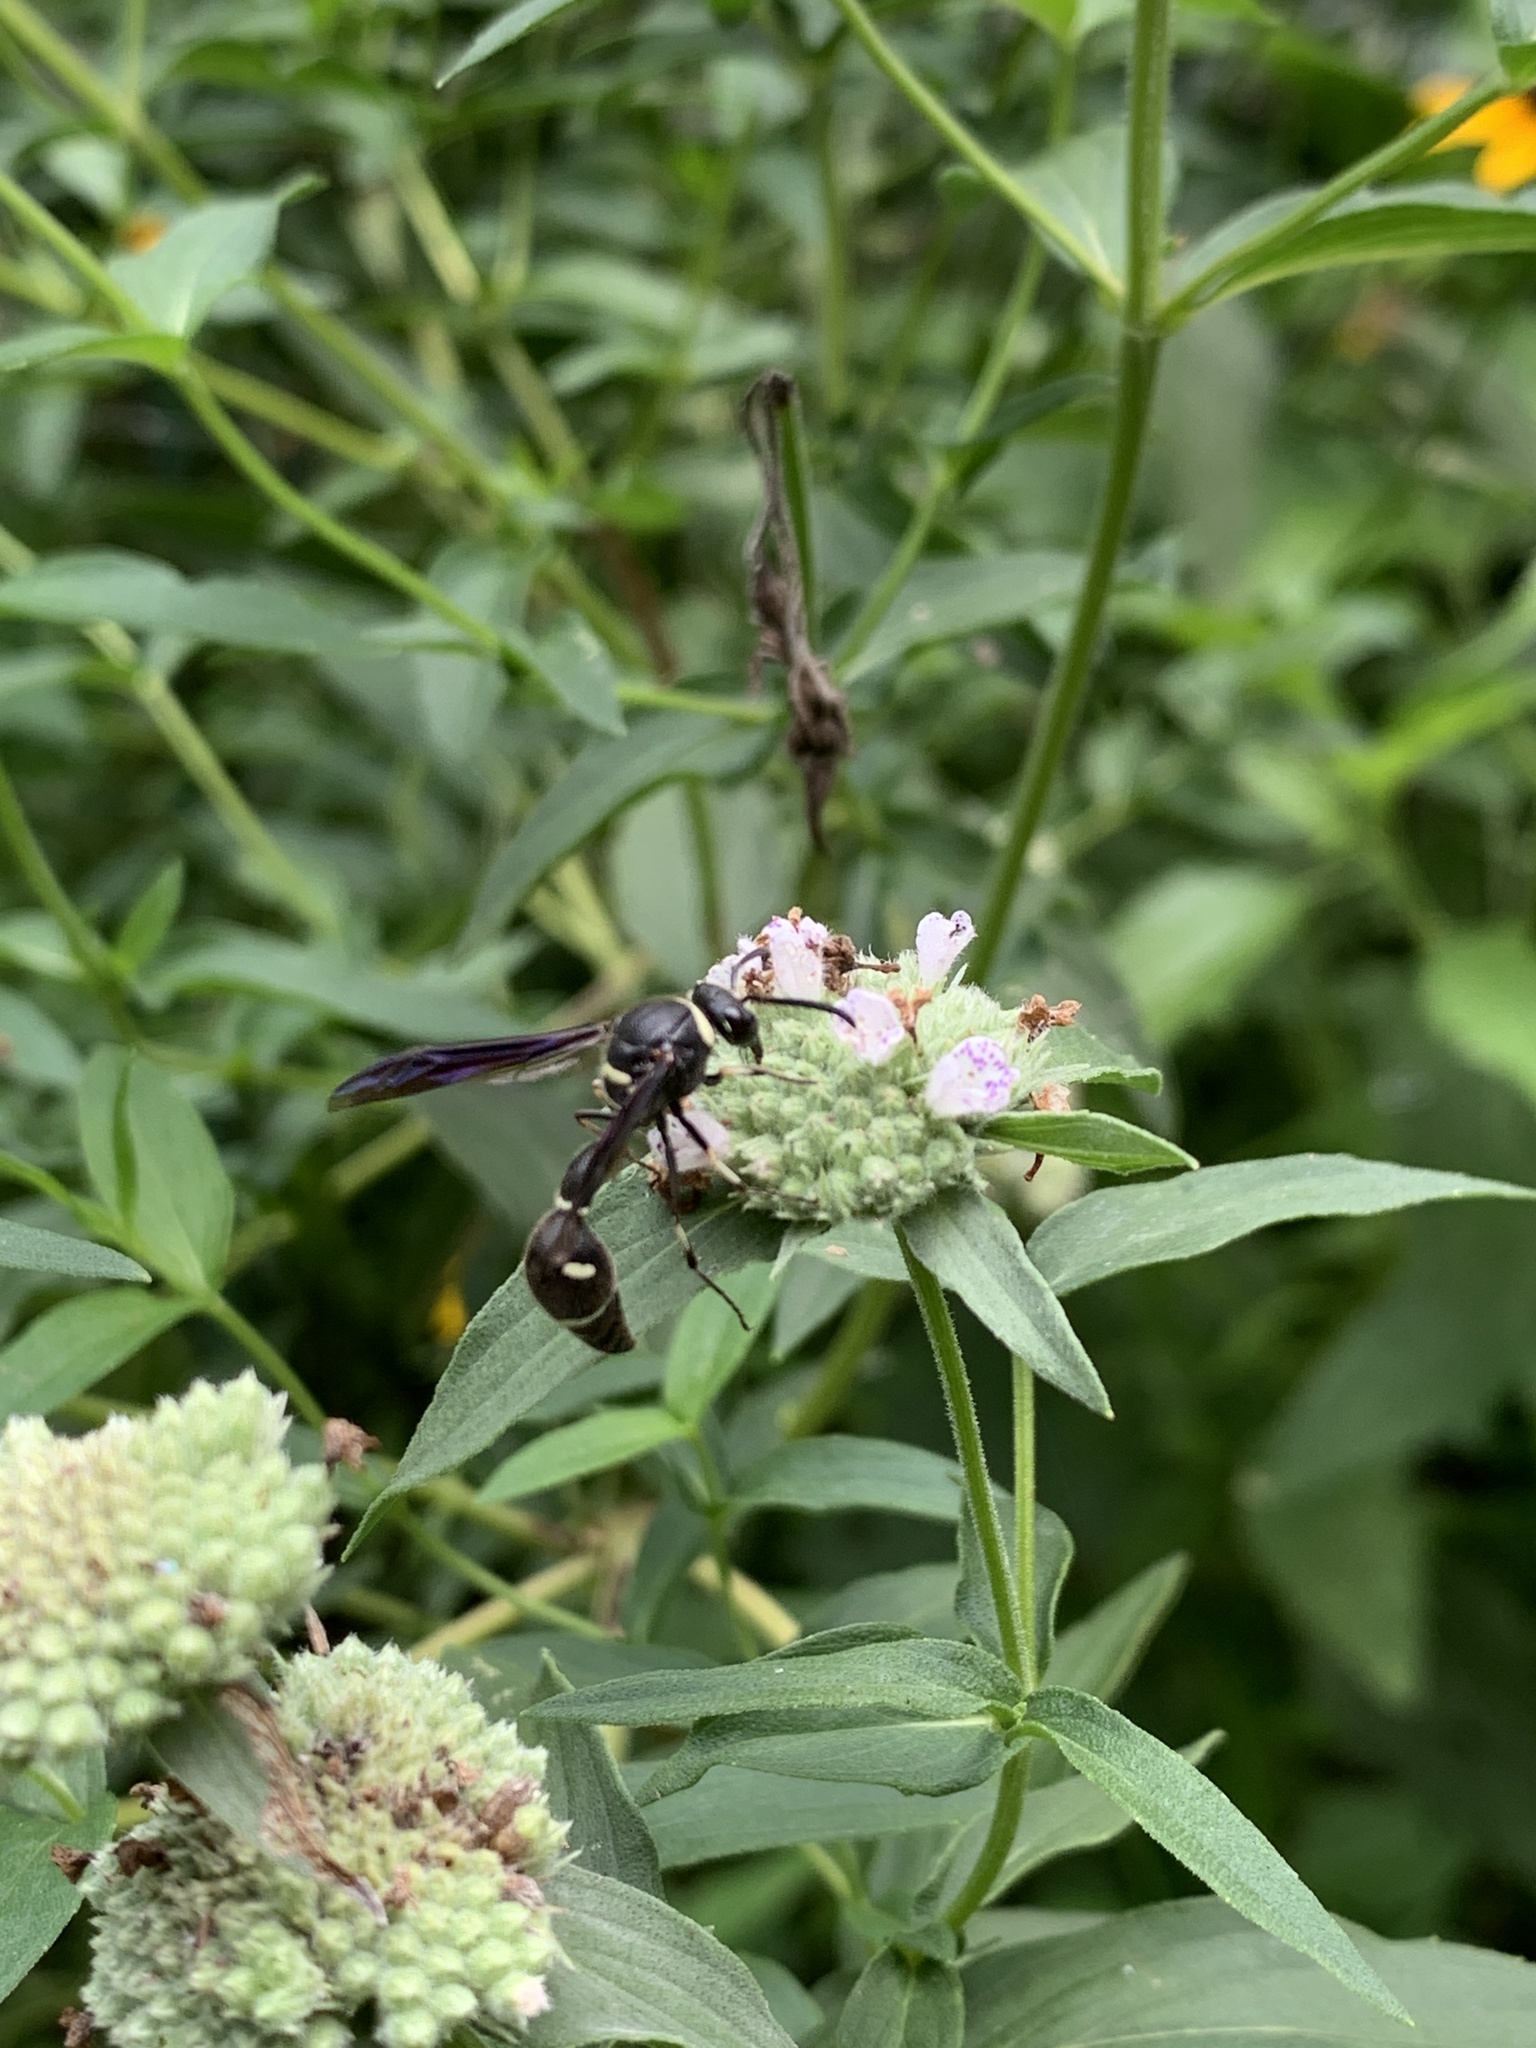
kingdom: Animalia
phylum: Arthropoda
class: Insecta
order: Hymenoptera
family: Vespidae
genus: Eumenes
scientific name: Eumenes fraternus
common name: Fraternal potter wasp
